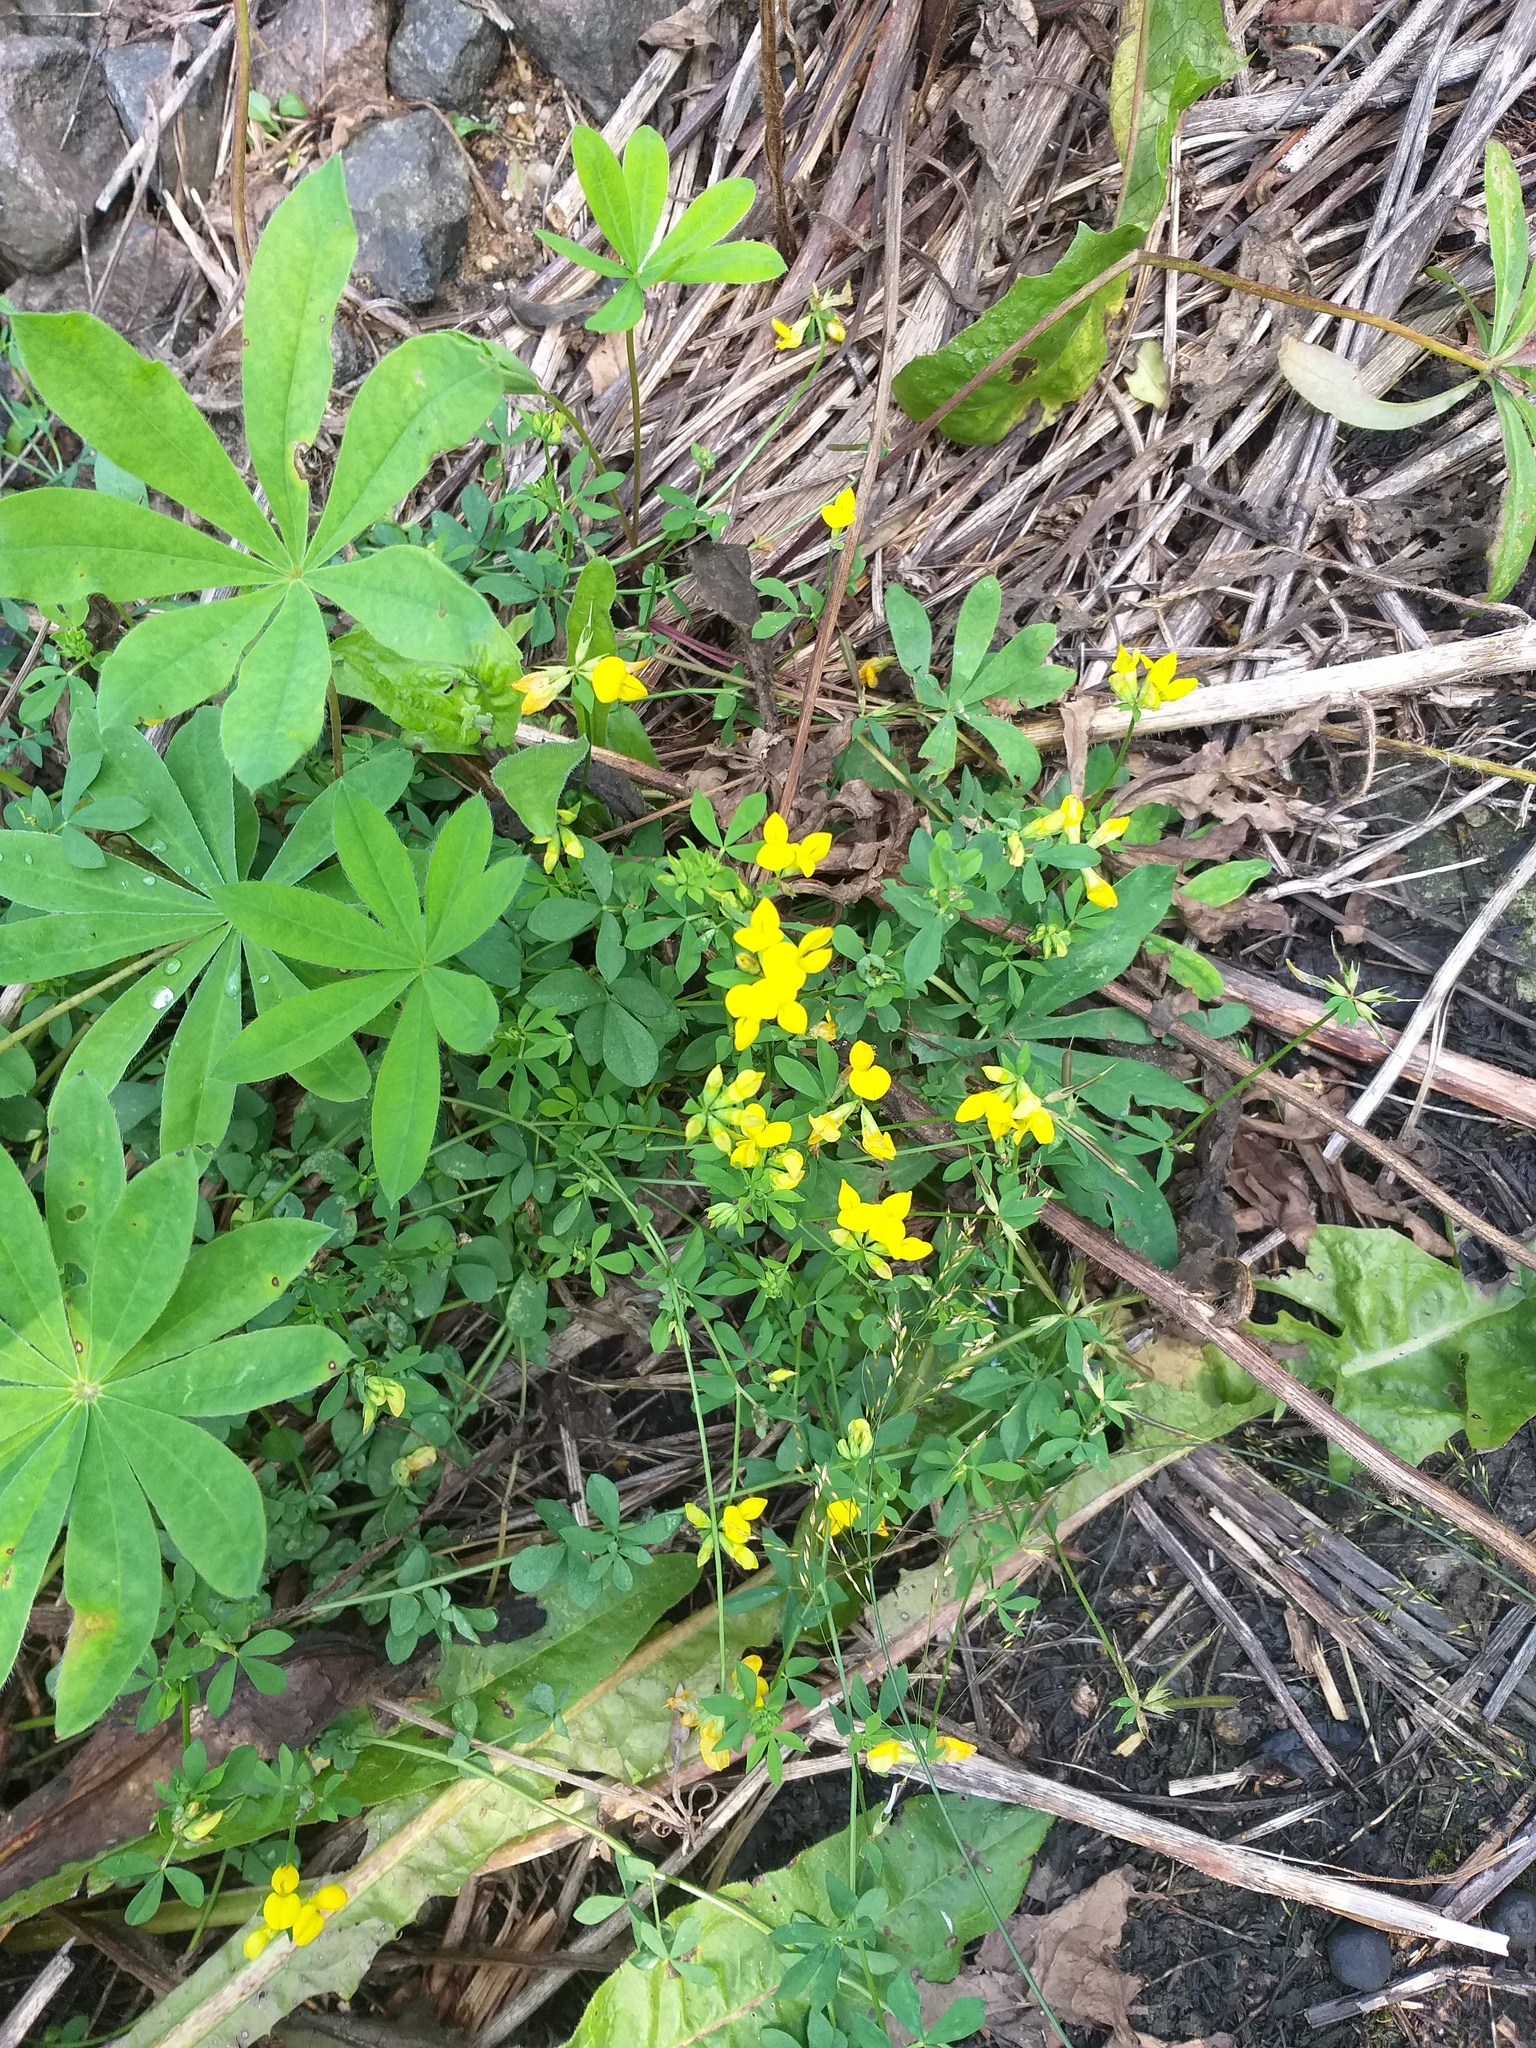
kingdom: Plantae
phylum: Tracheophyta
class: Magnoliopsida
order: Fabales
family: Fabaceae
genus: Lotus
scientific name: Lotus corniculatus
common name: Common bird's-foot-trefoil
